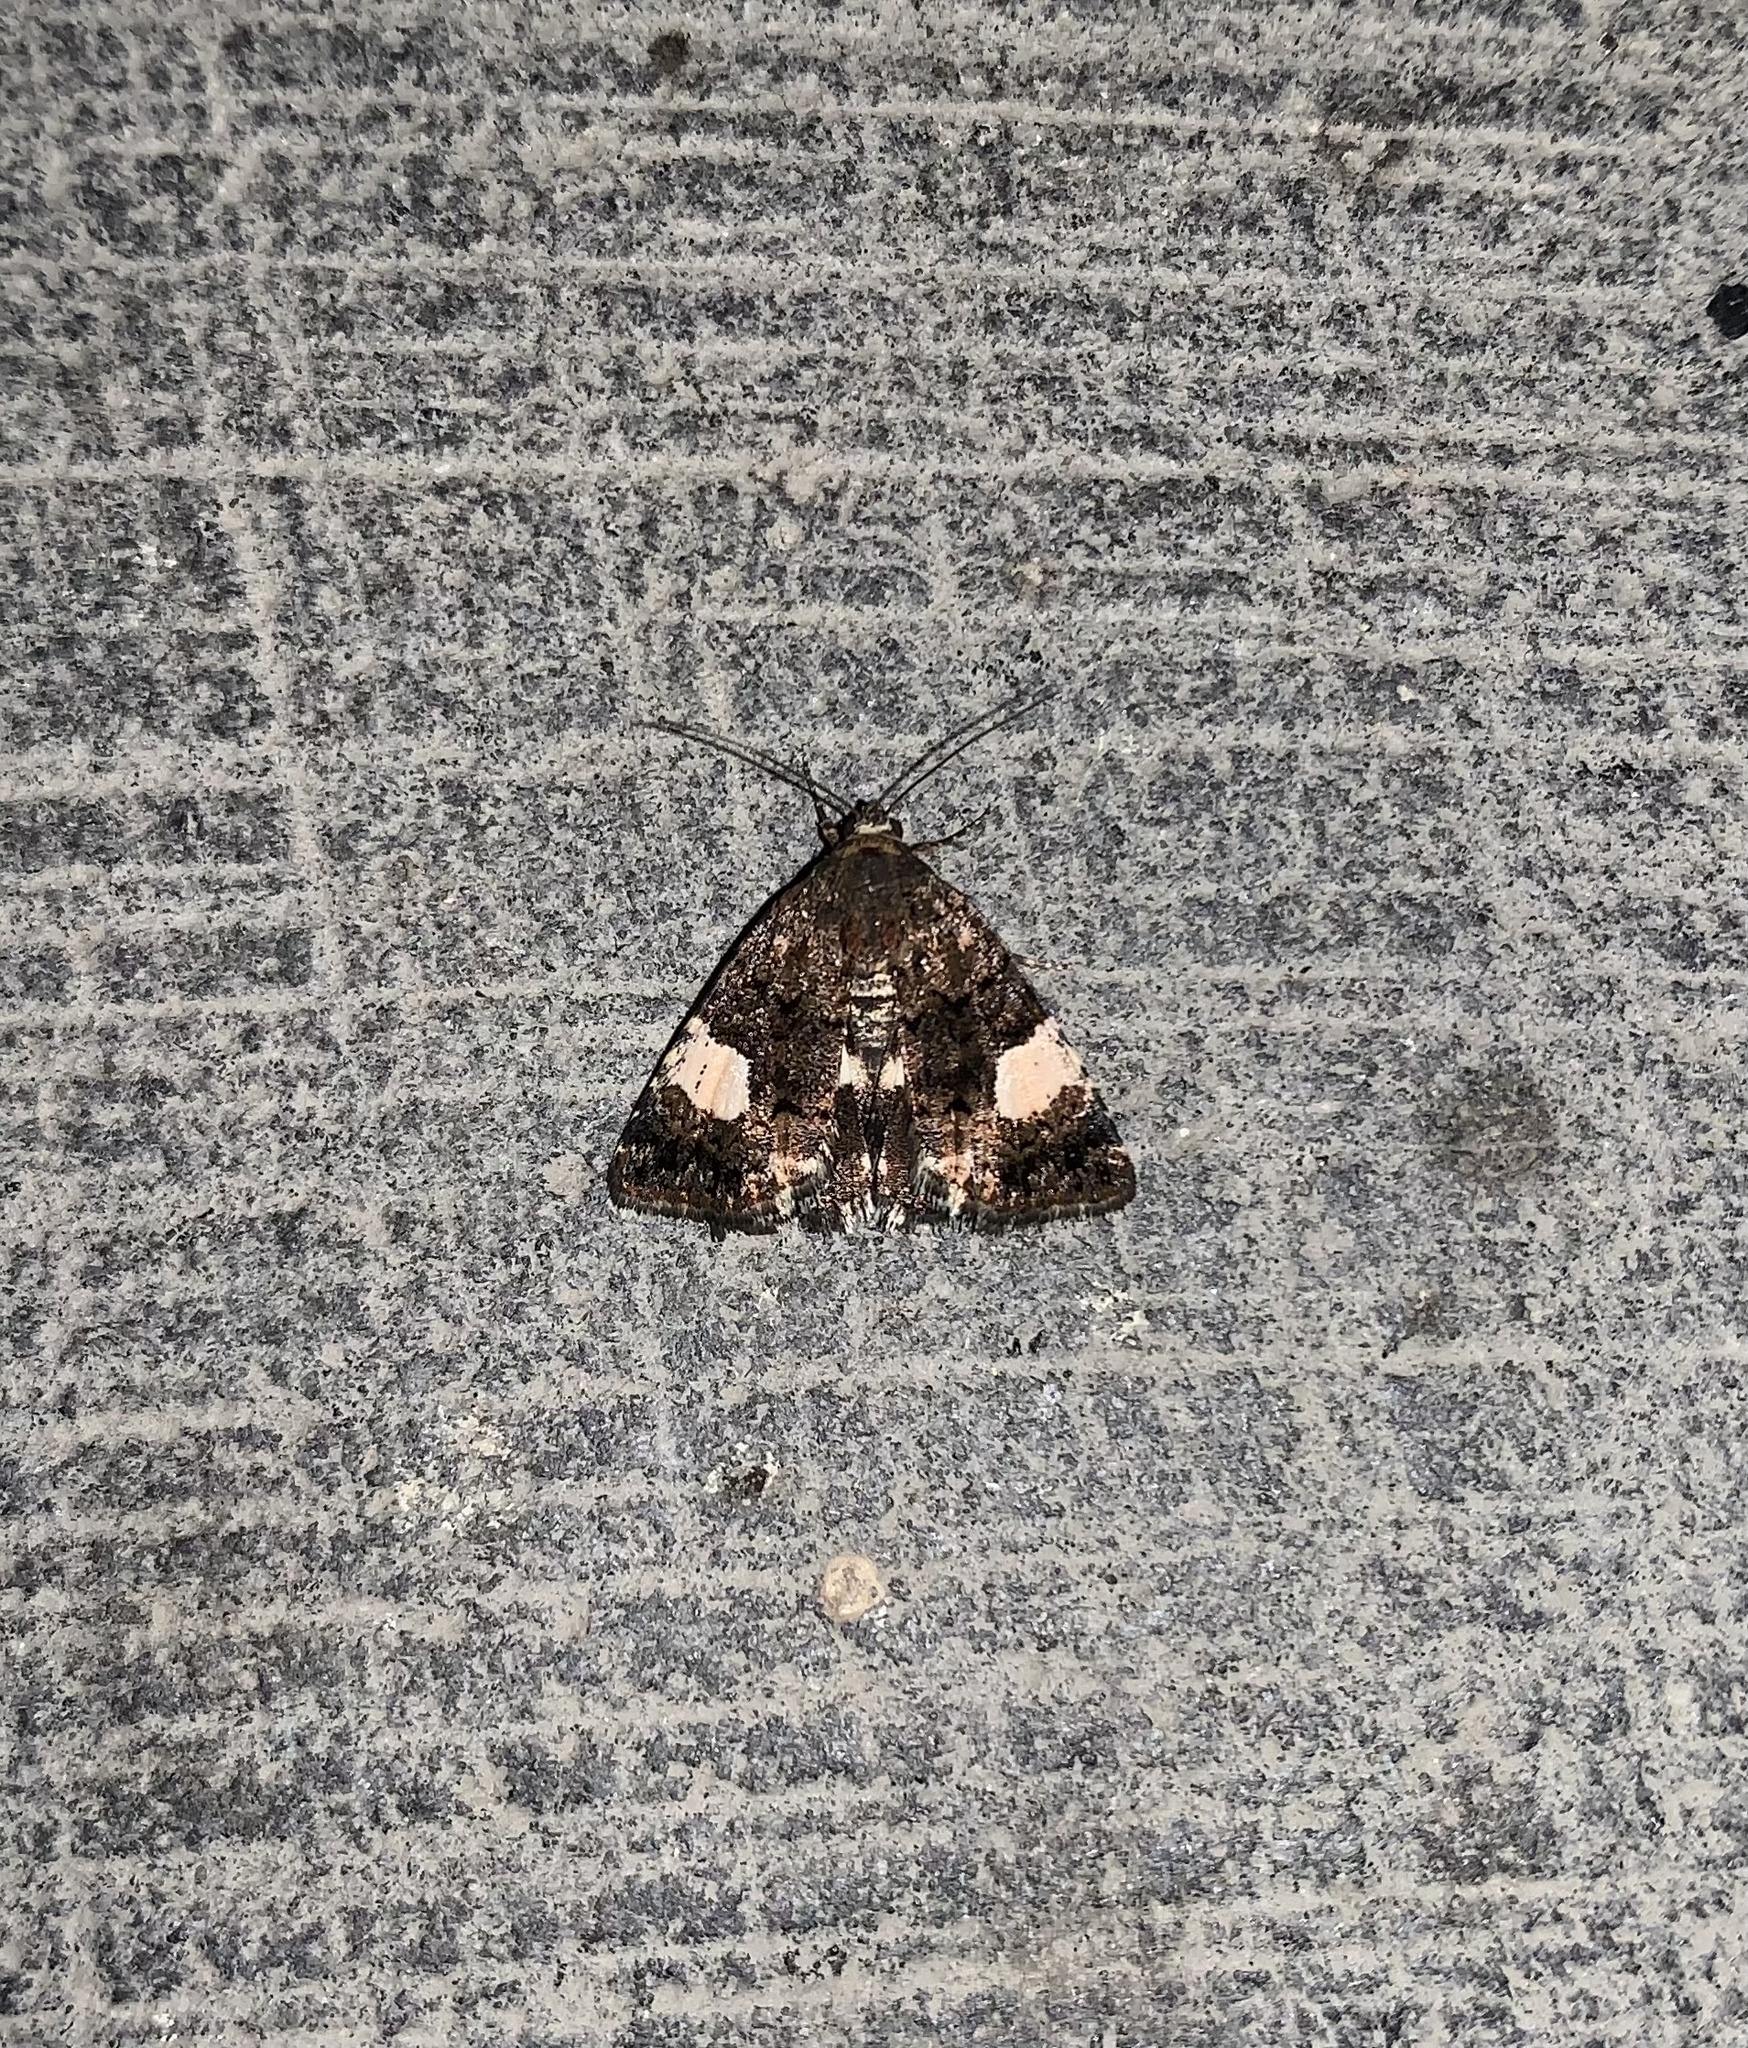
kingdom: Animalia
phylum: Arthropoda
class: Insecta
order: Lepidoptera
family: Erebidae
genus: Tyta
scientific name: Tyta luctuosa
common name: Four-spotted
